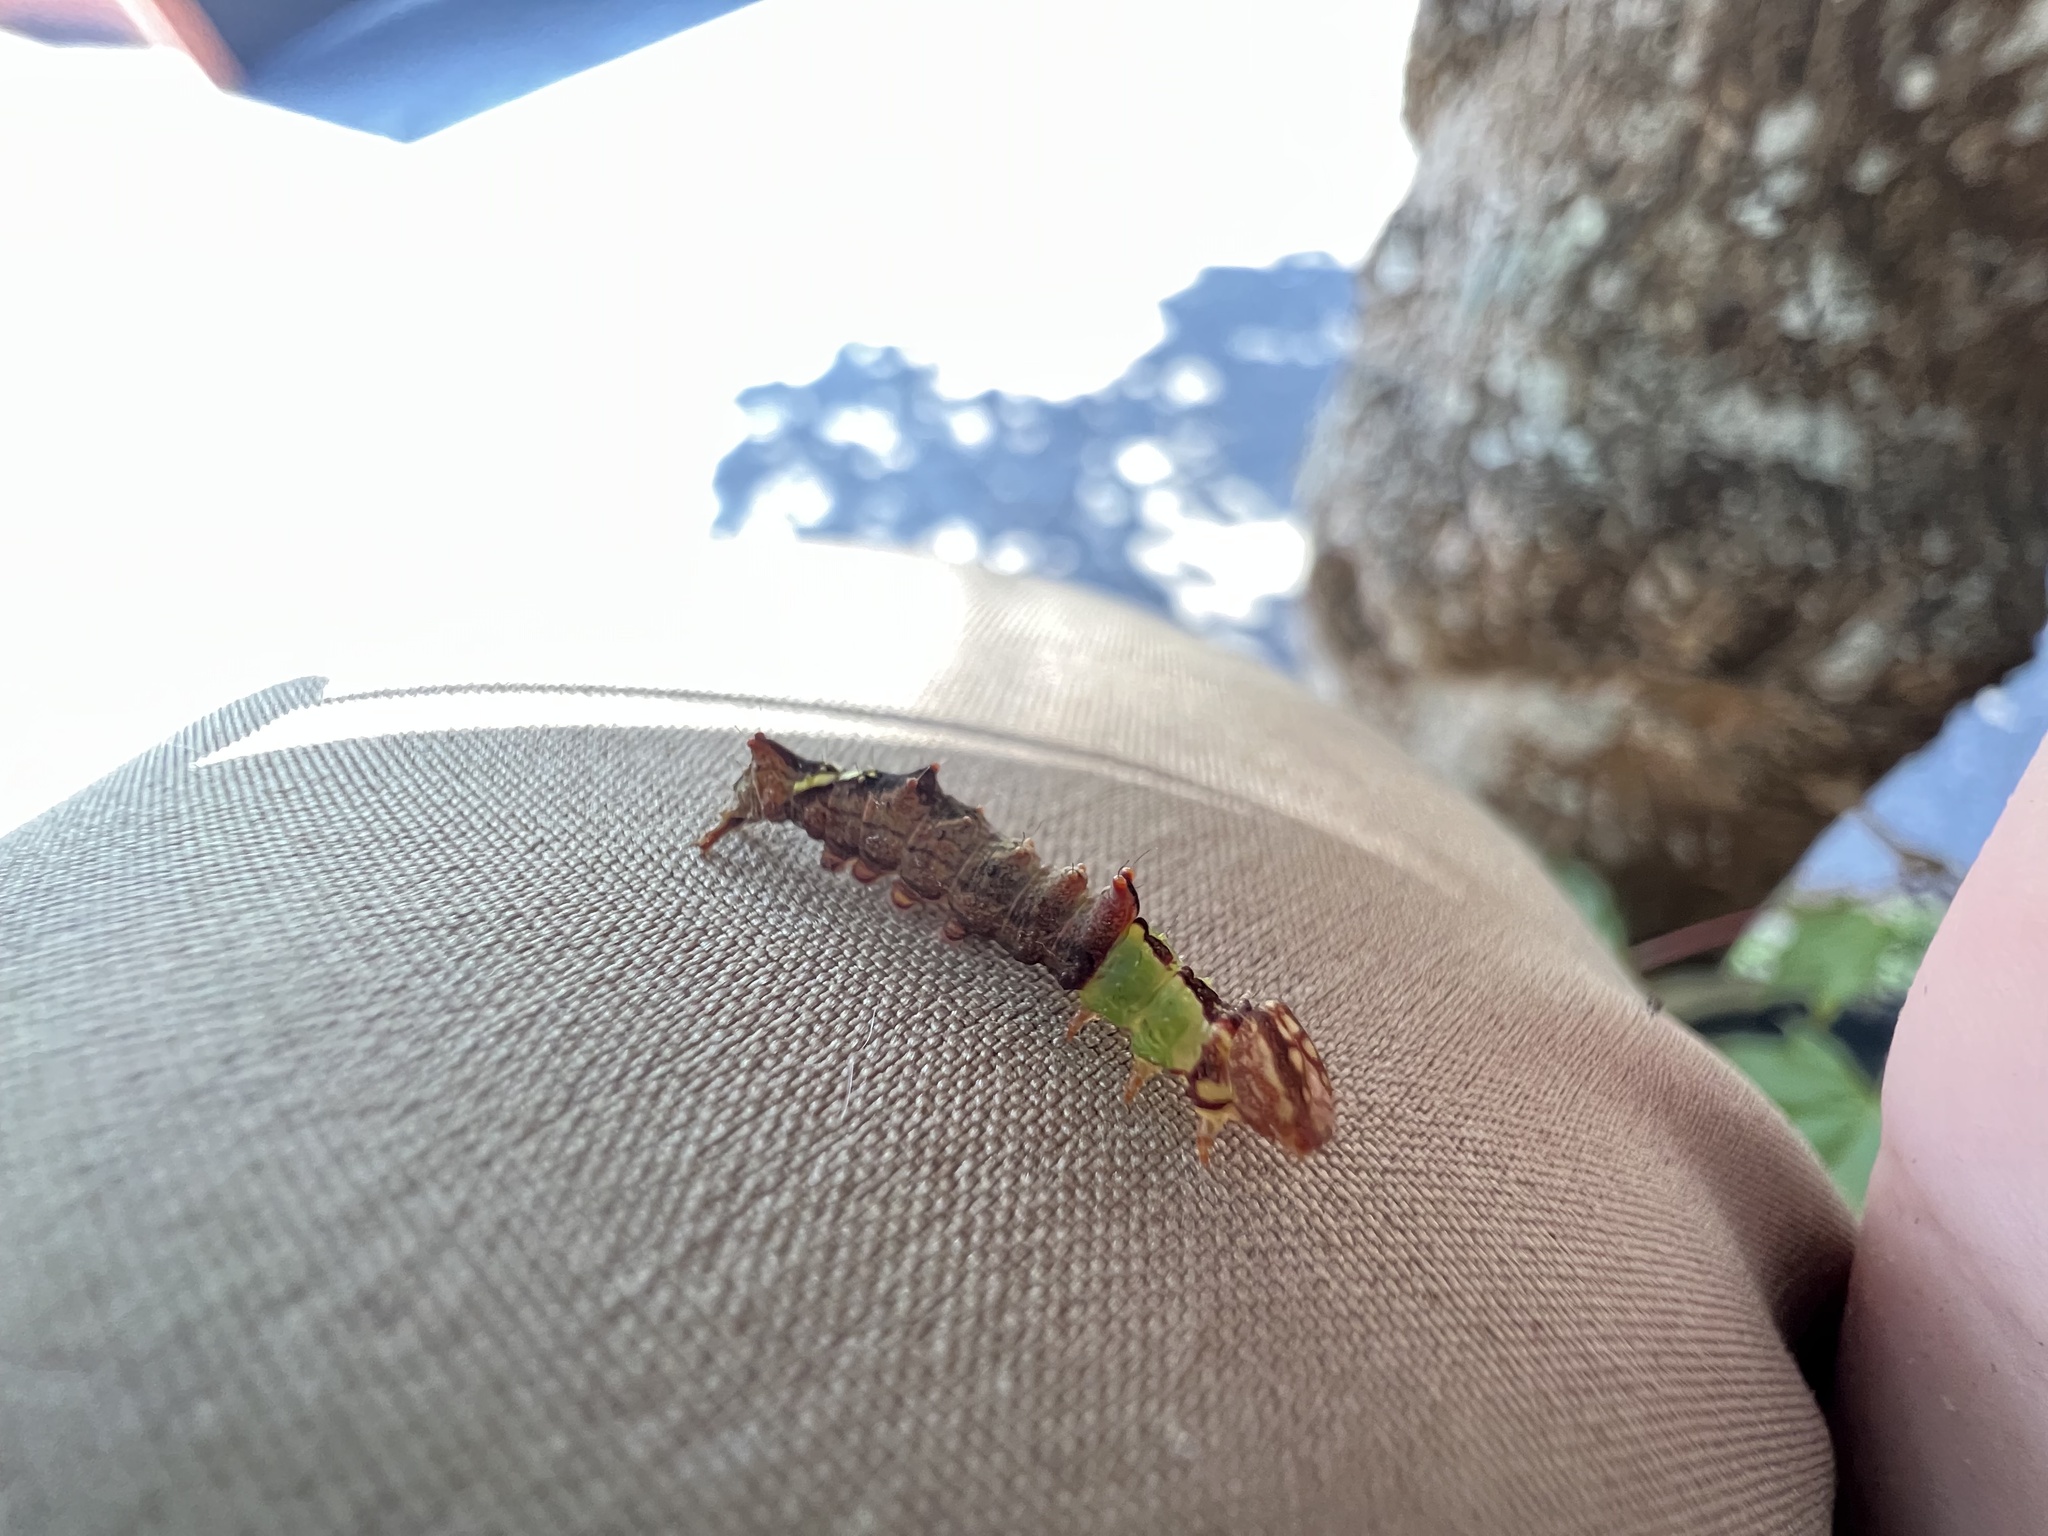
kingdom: Animalia
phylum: Arthropoda
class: Insecta
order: Lepidoptera
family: Notodontidae
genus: Schizura
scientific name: Schizura ipomaeae
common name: Morning-glory prominent
